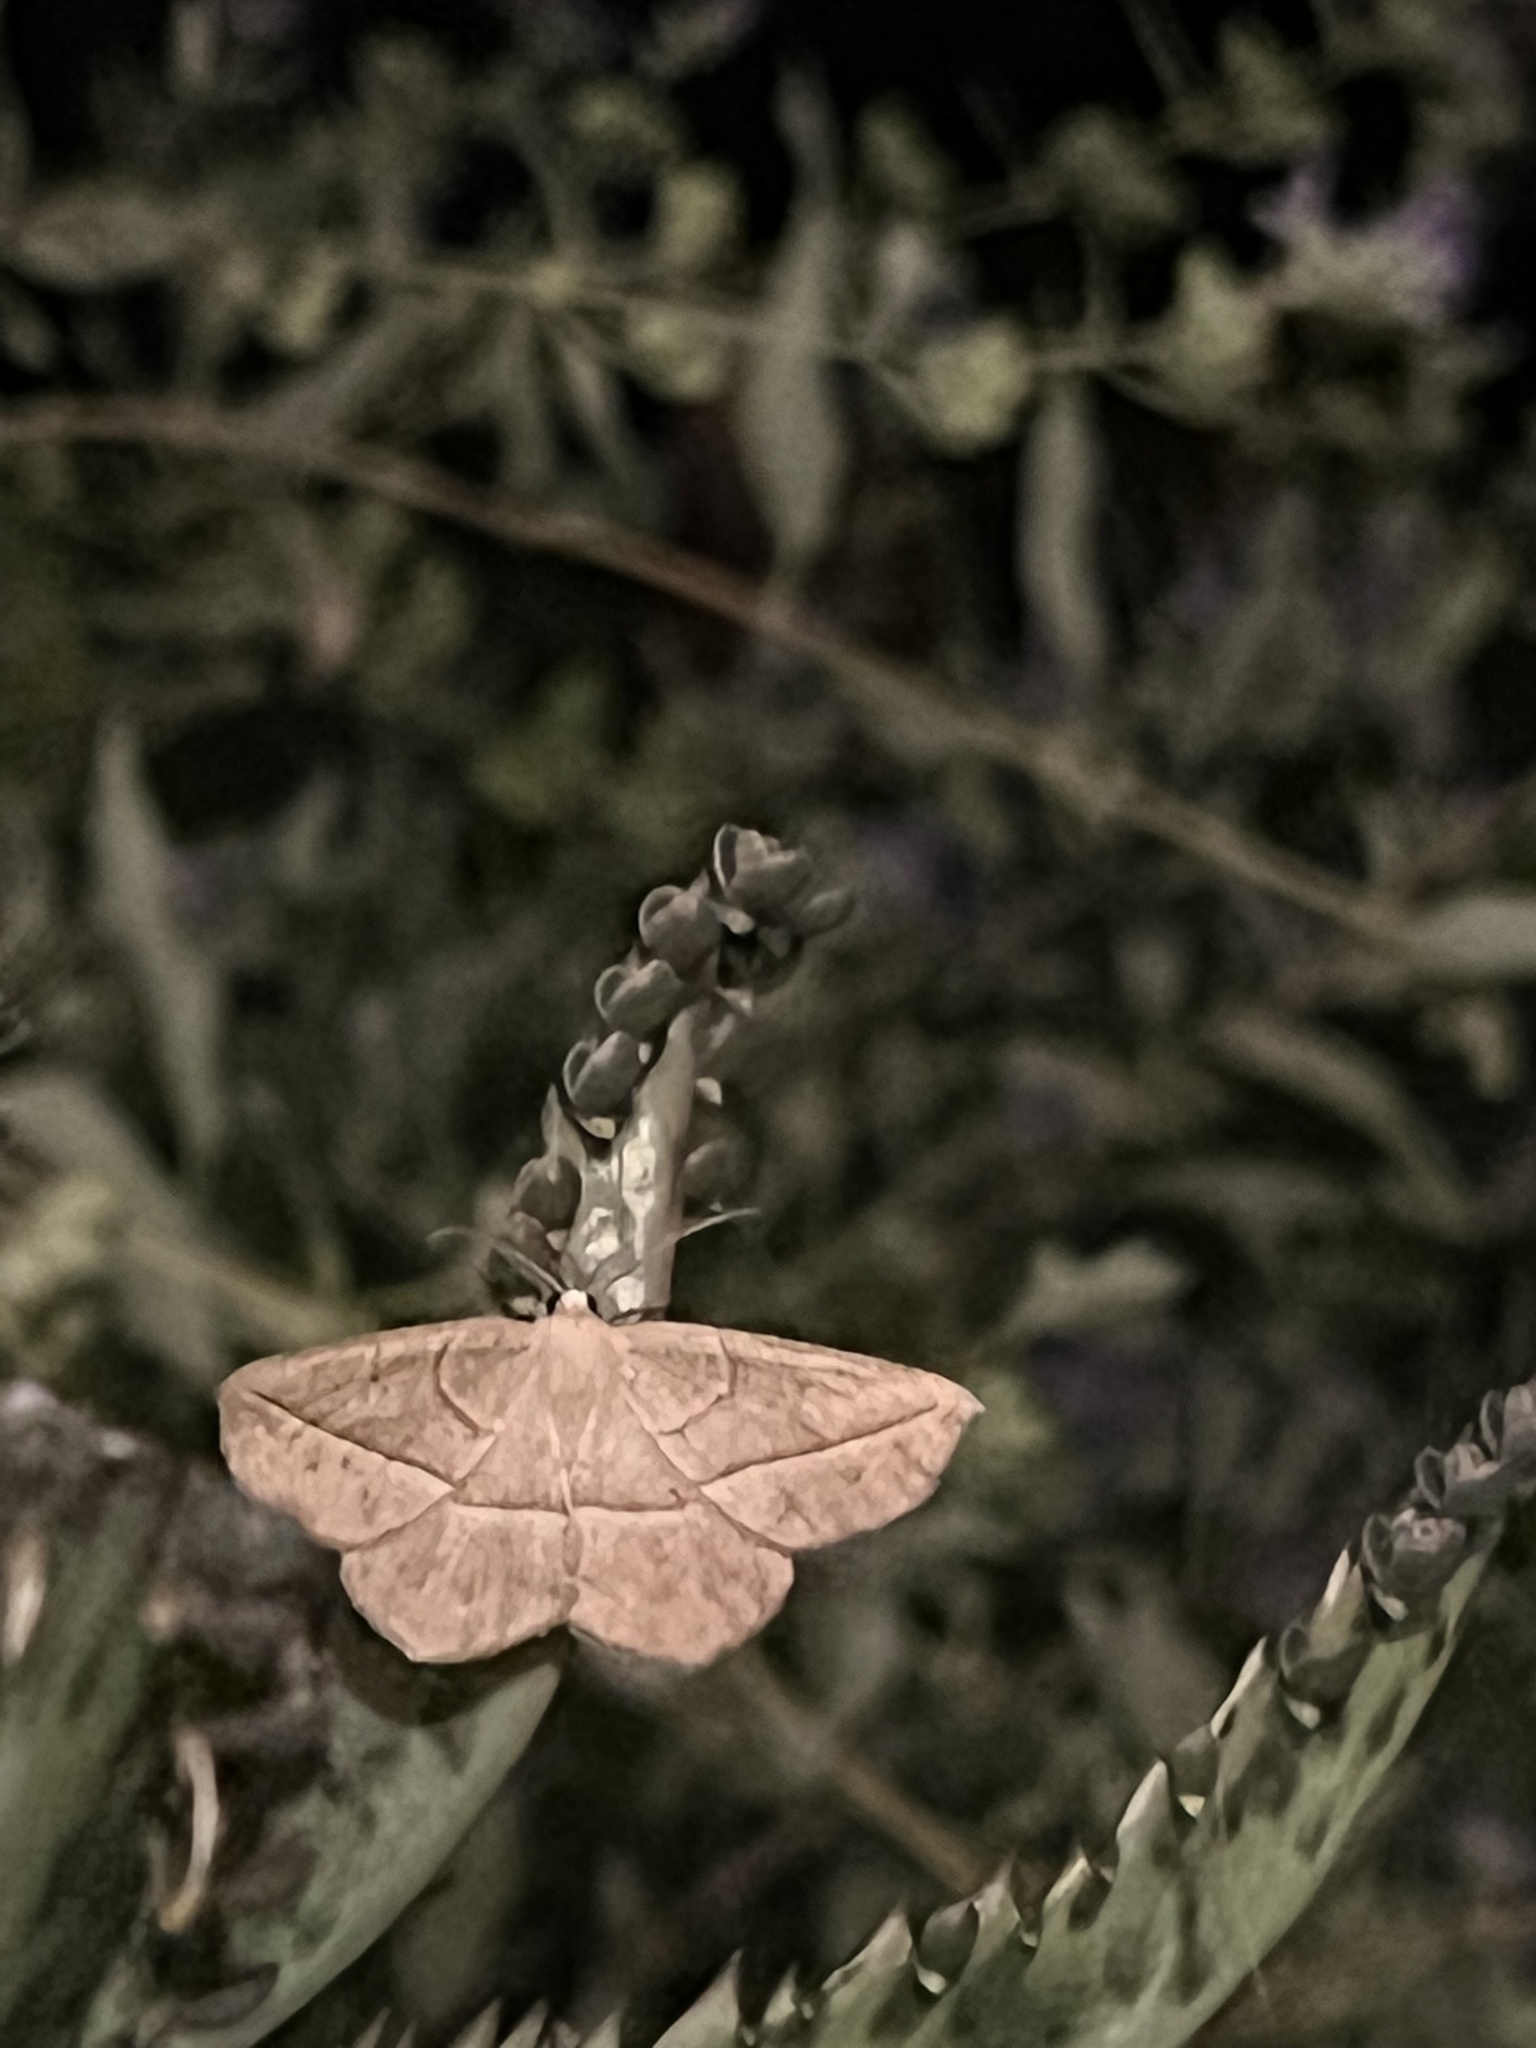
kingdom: Animalia
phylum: Arthropoda
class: Insecta
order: Lepidoptera
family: Geometridae
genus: Eusarca
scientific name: Eusarca confusaria
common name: Confused eusarca
